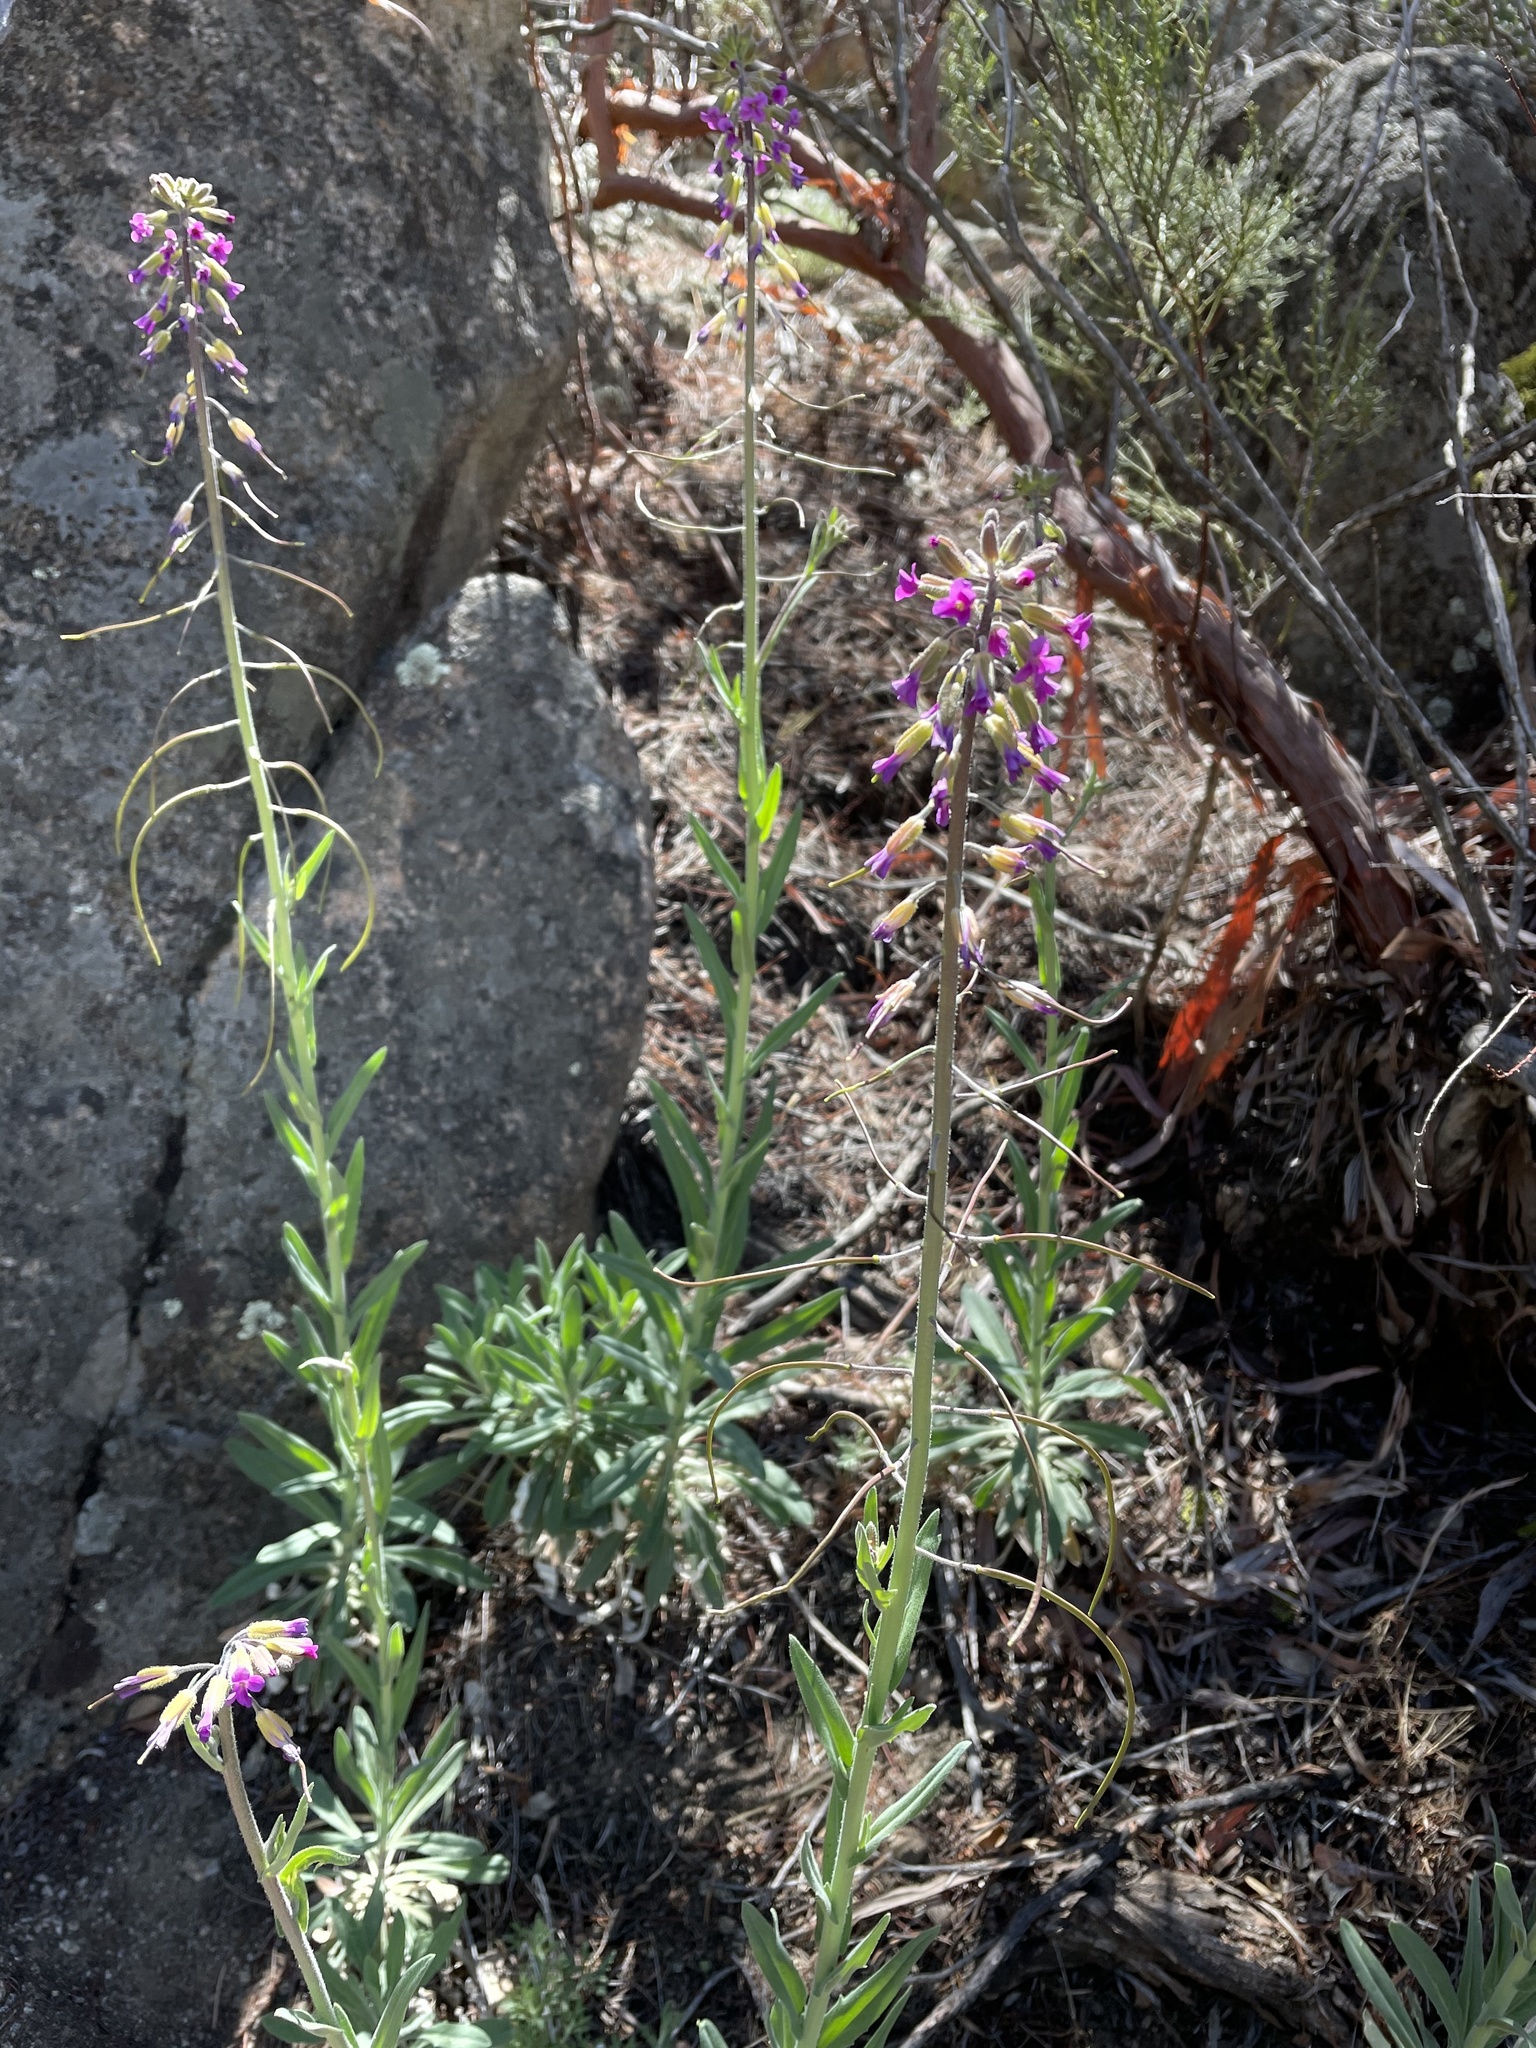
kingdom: Plantae
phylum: Tracheophyta
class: Magnoliopsida
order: Brassicales
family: Brassicaceae
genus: Boechera
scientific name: Boechera californica
